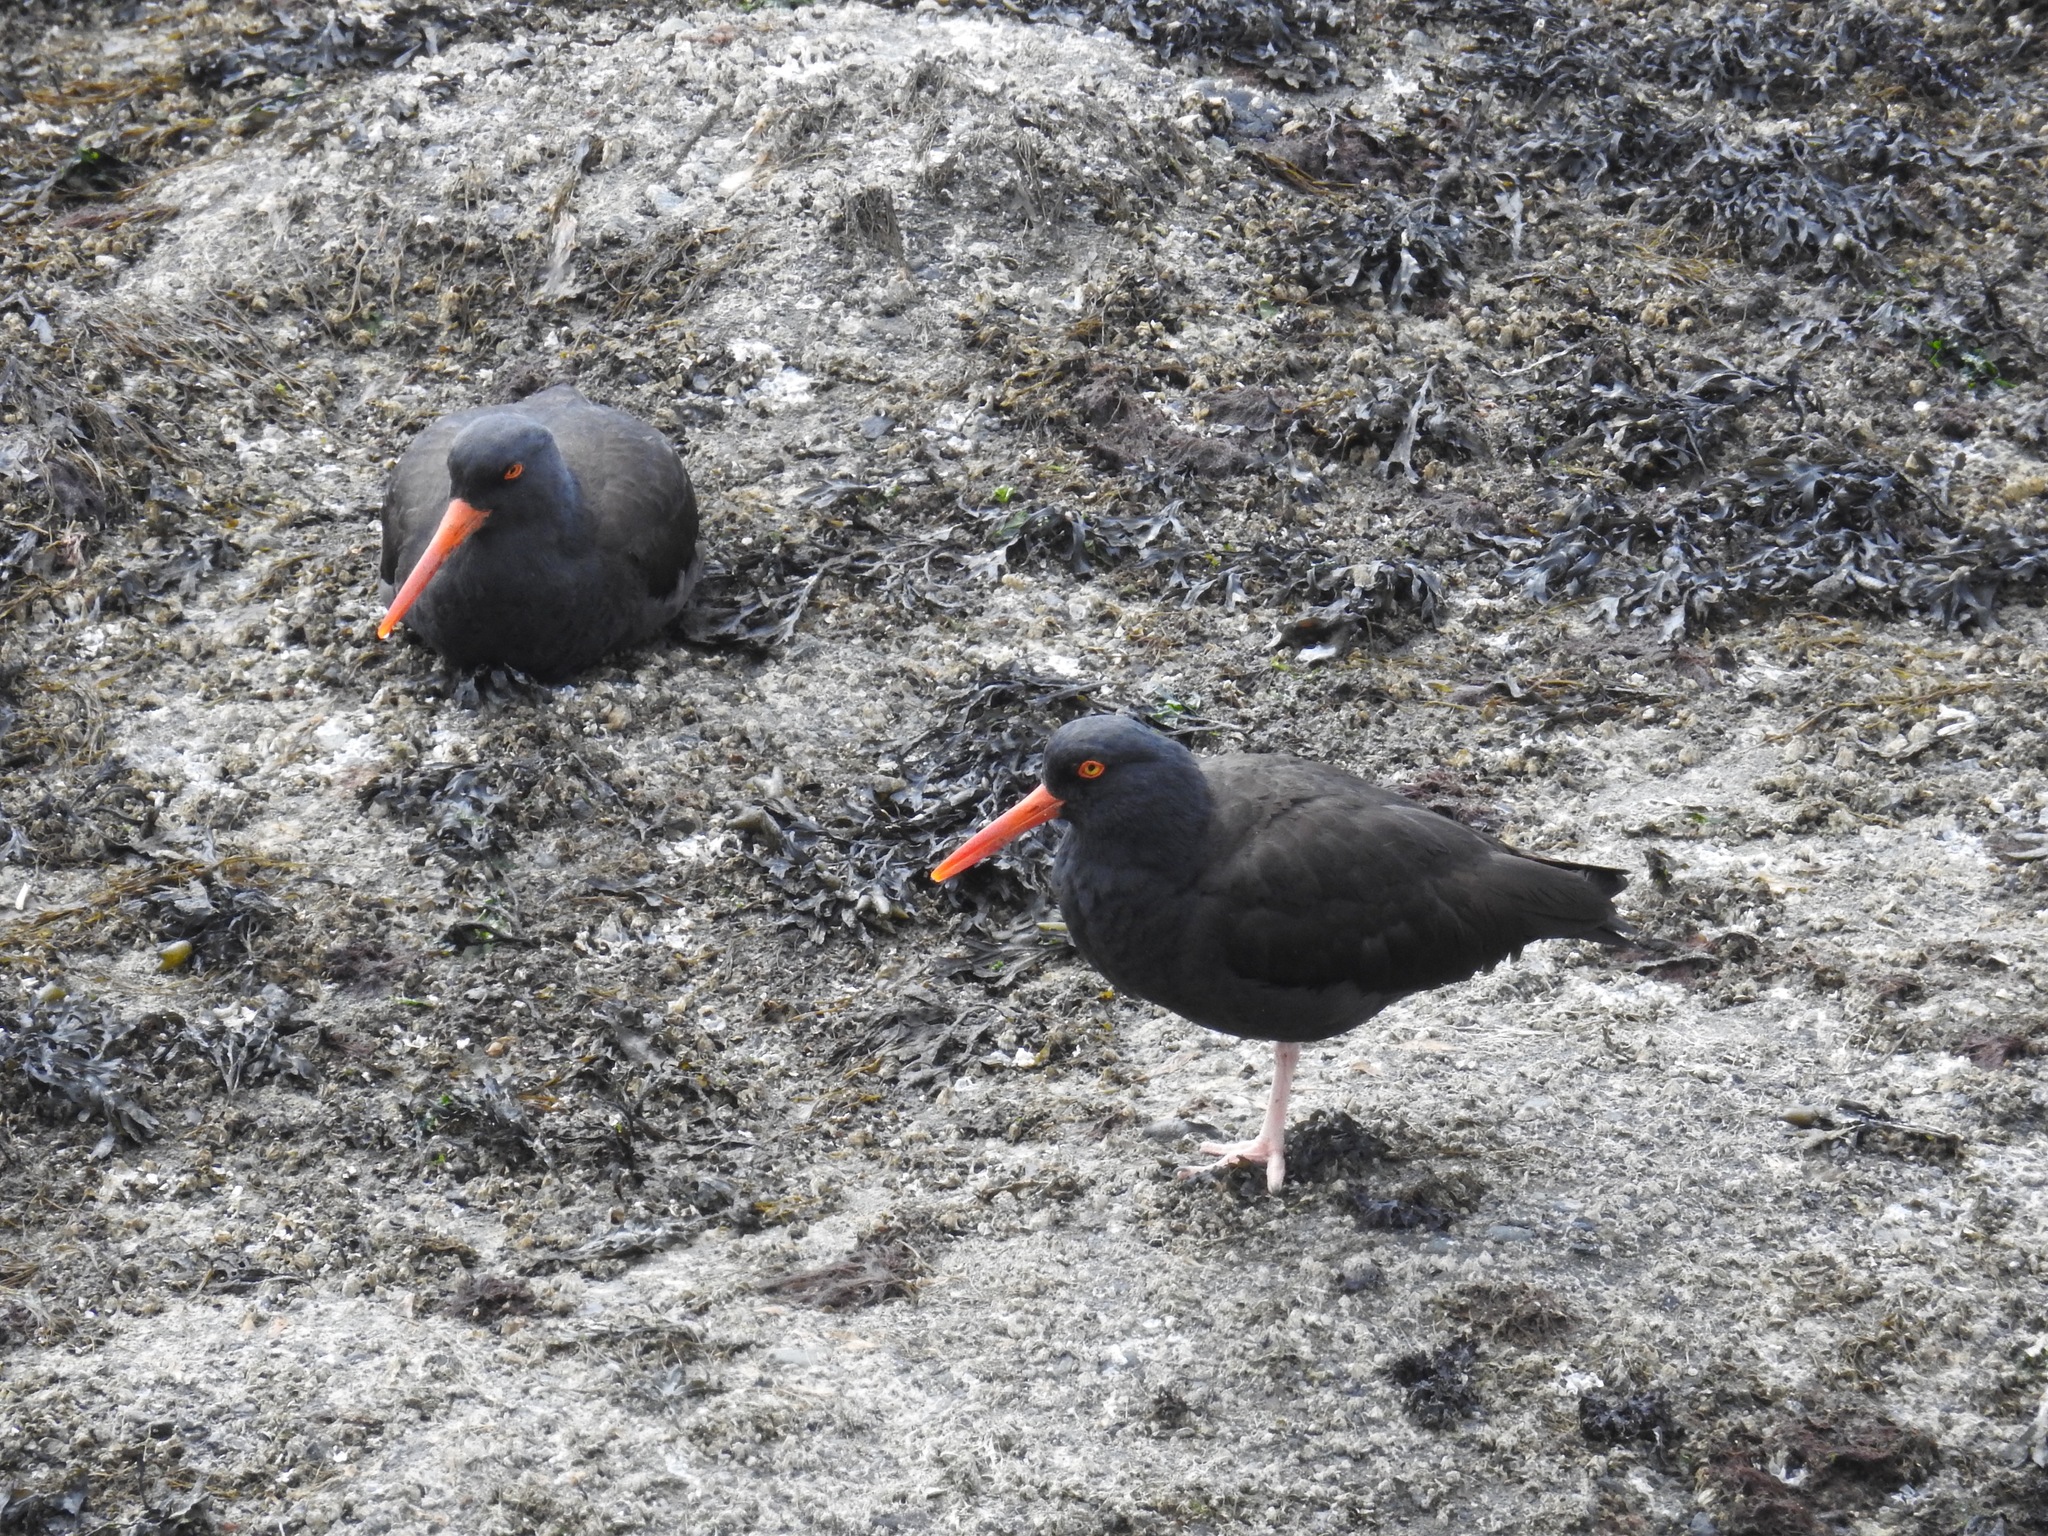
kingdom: Animalia
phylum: Chordata
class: Aves
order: Charadriiformes
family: Haematopodidae
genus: Haematopus
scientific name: Haematopus bachmani
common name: Black oystercatcher
